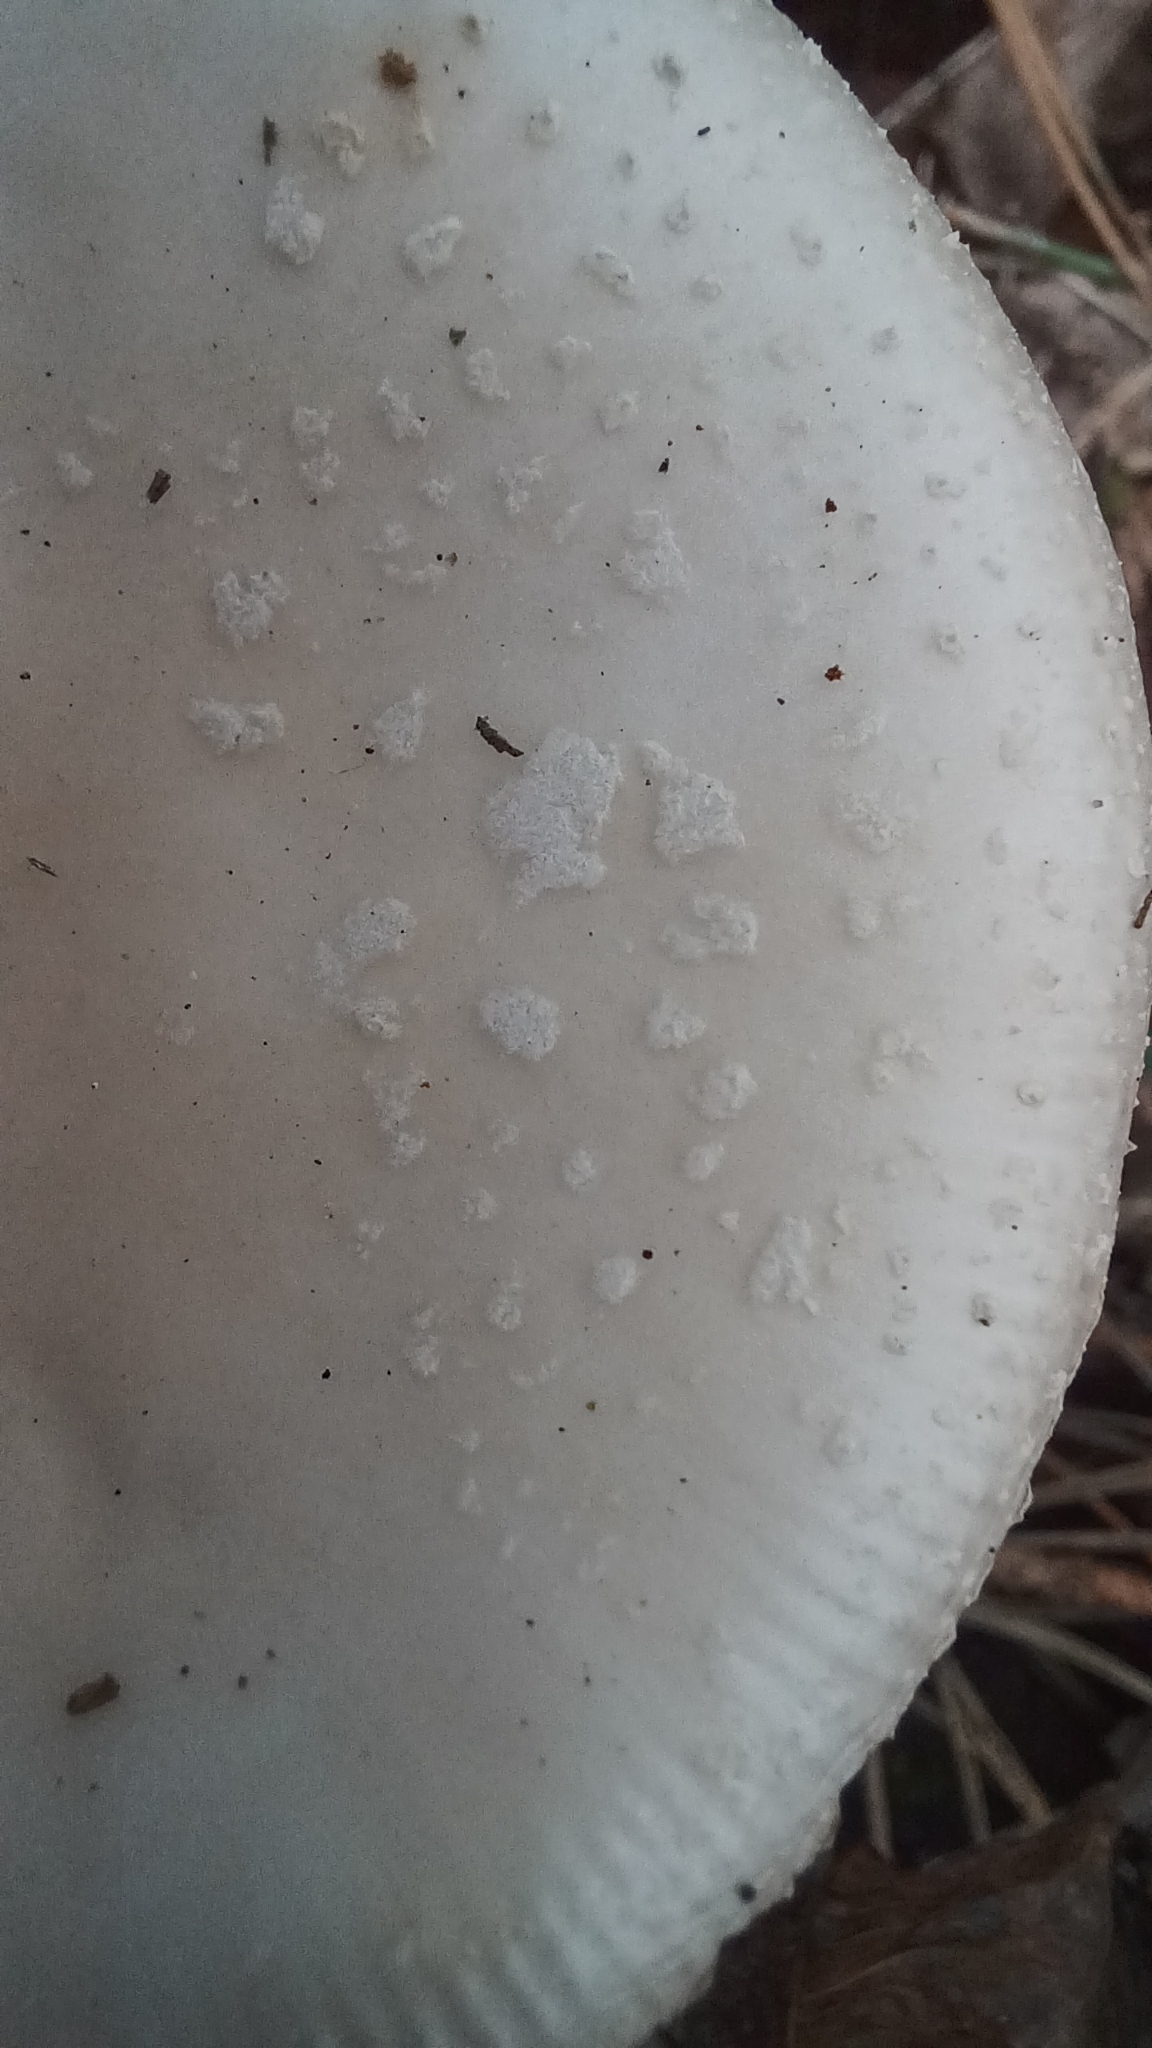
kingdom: Fungi
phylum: Basidiomycota
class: Agaricomycetes
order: Agaricales
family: Amanitaceae
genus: Amanita
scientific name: Amanita pantherina
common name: Panthercap
